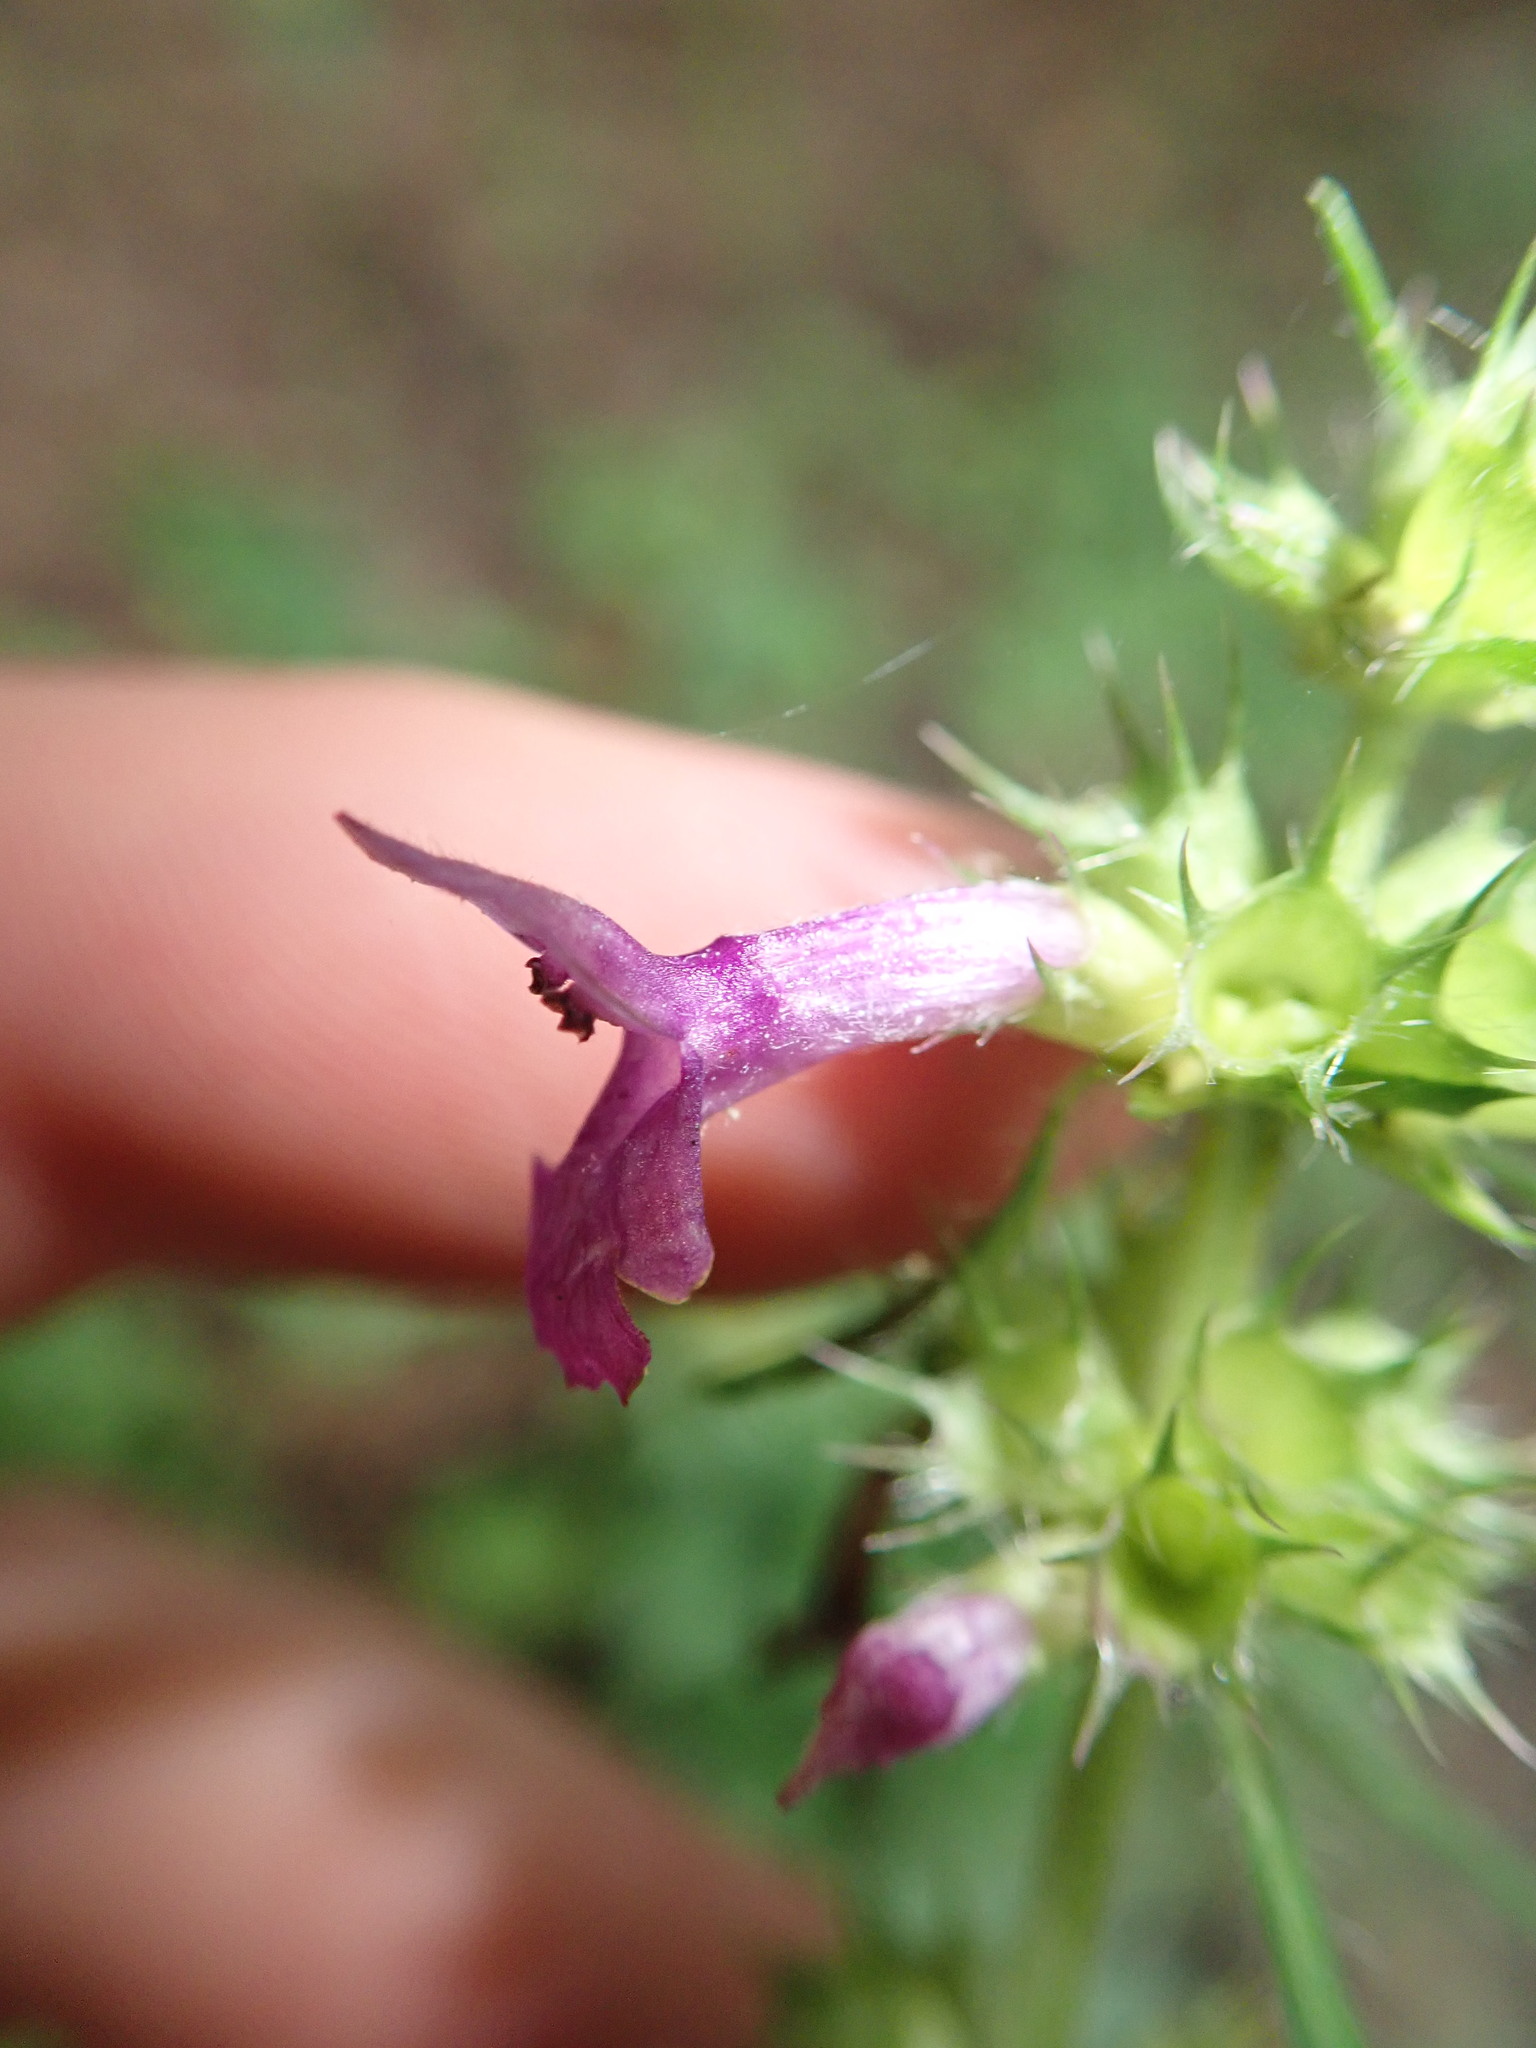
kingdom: Plantae
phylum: Tracheophyta
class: Magnoliopsida
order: Lamiales
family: Lamiaceae
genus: Betonica
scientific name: Betonica officinalis
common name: Bishop's-wort
